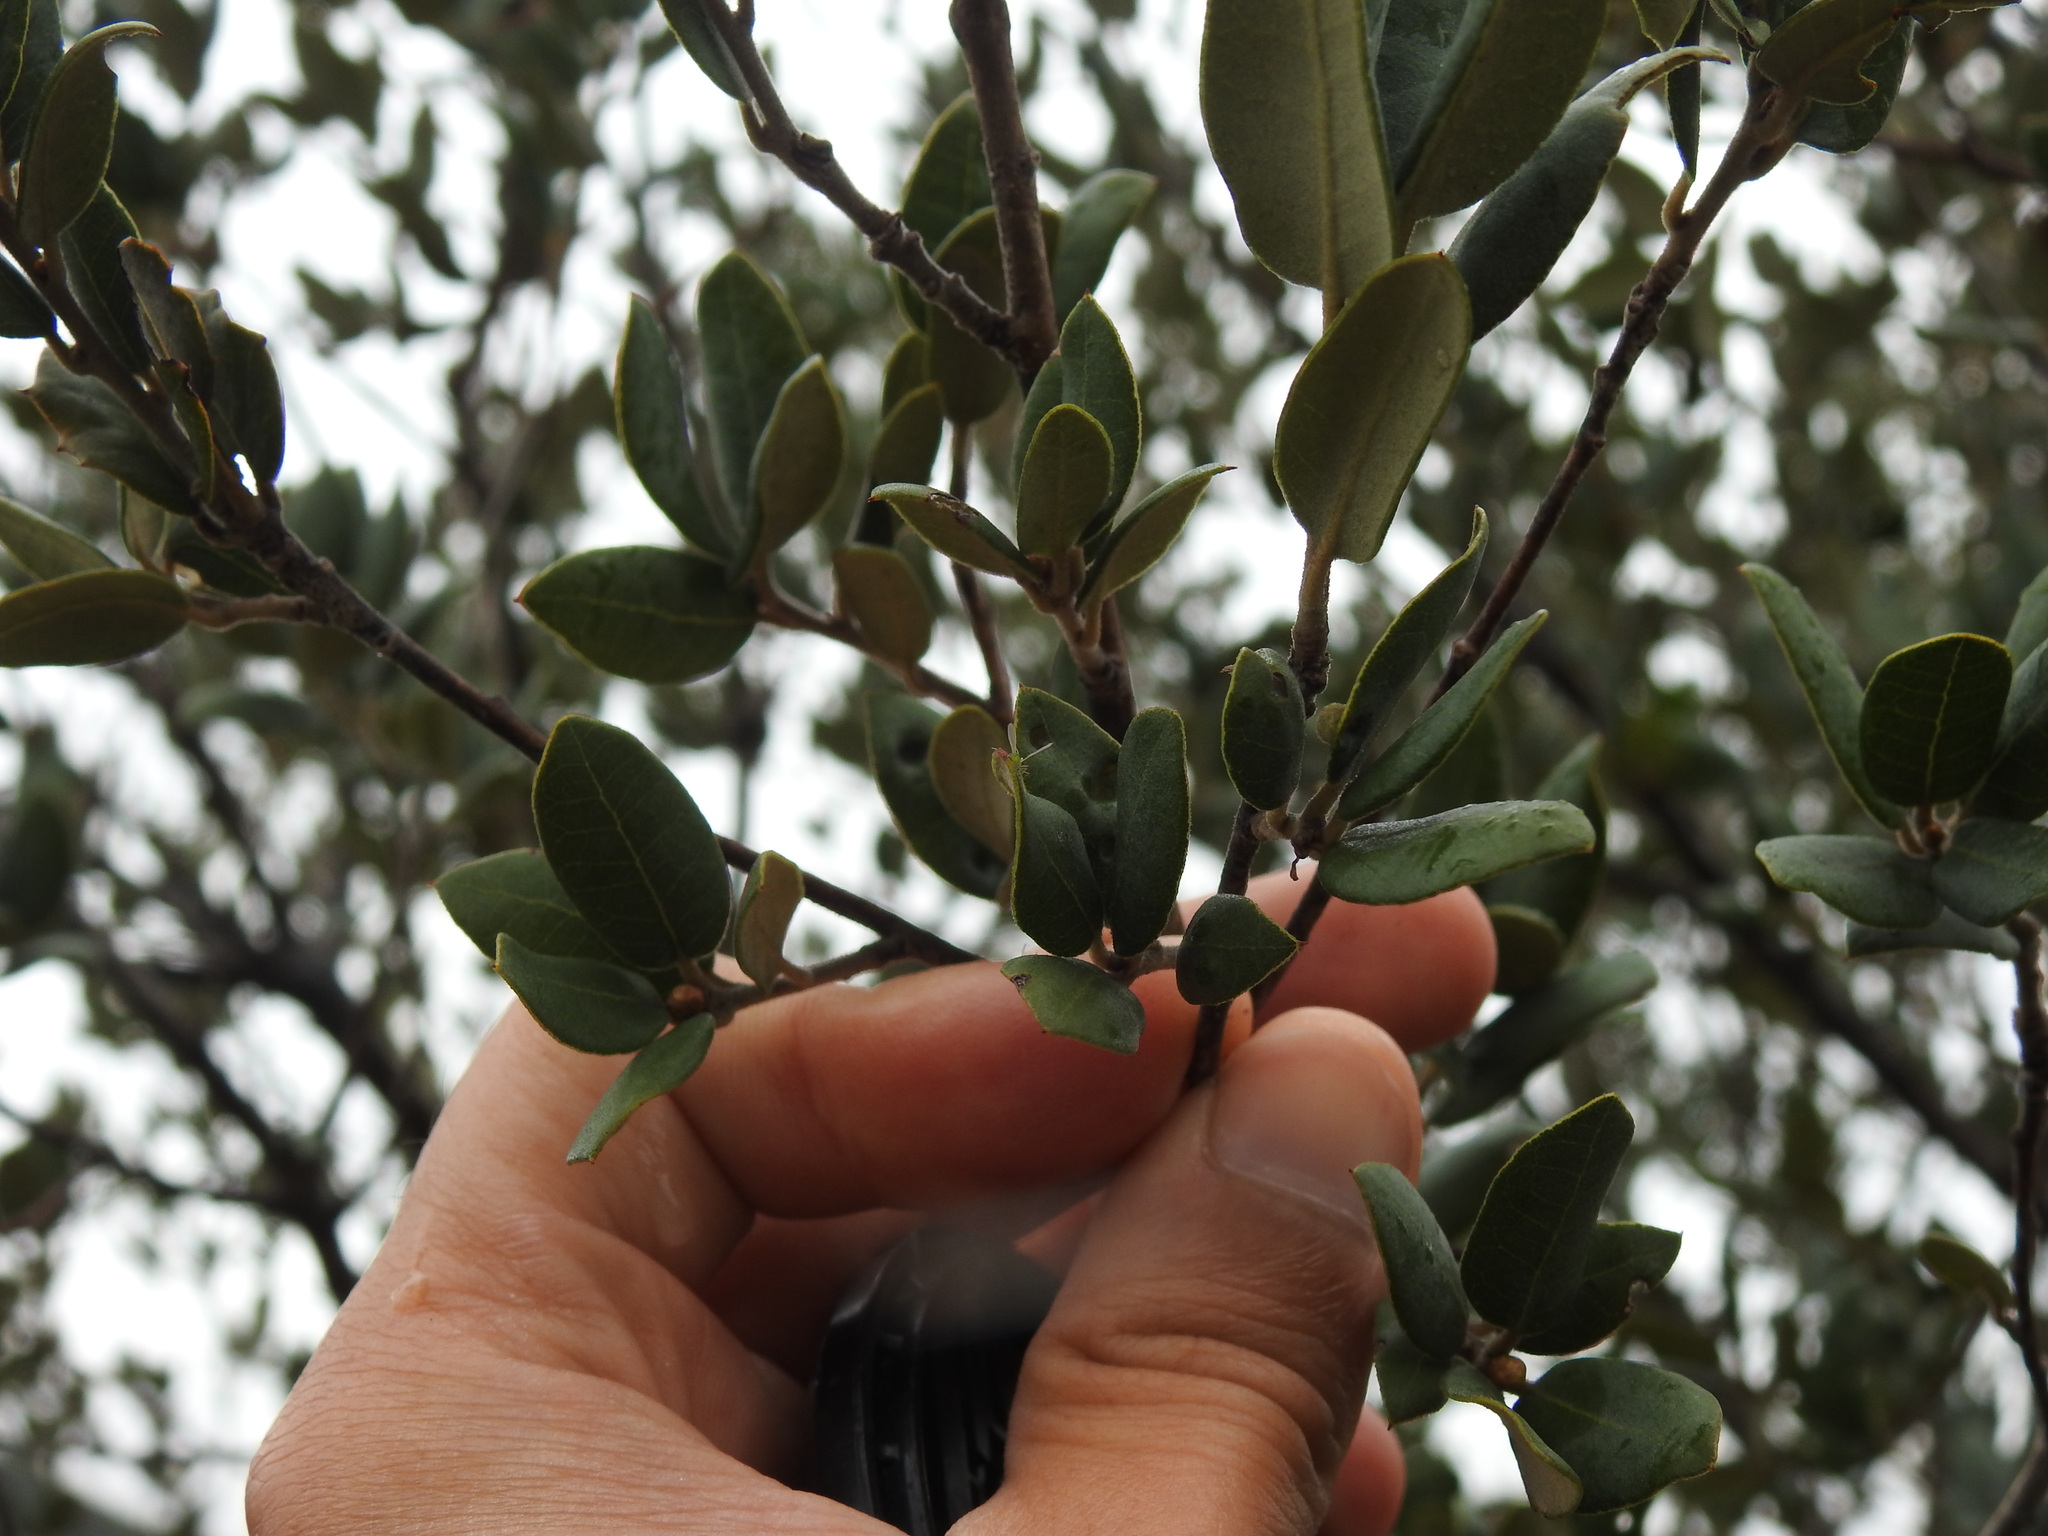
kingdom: Animalia
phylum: Arthropoda
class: Insecta
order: Diptera
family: Cecidomyiidae
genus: Dryomyia
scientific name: Dryomyia lichtensteinii
